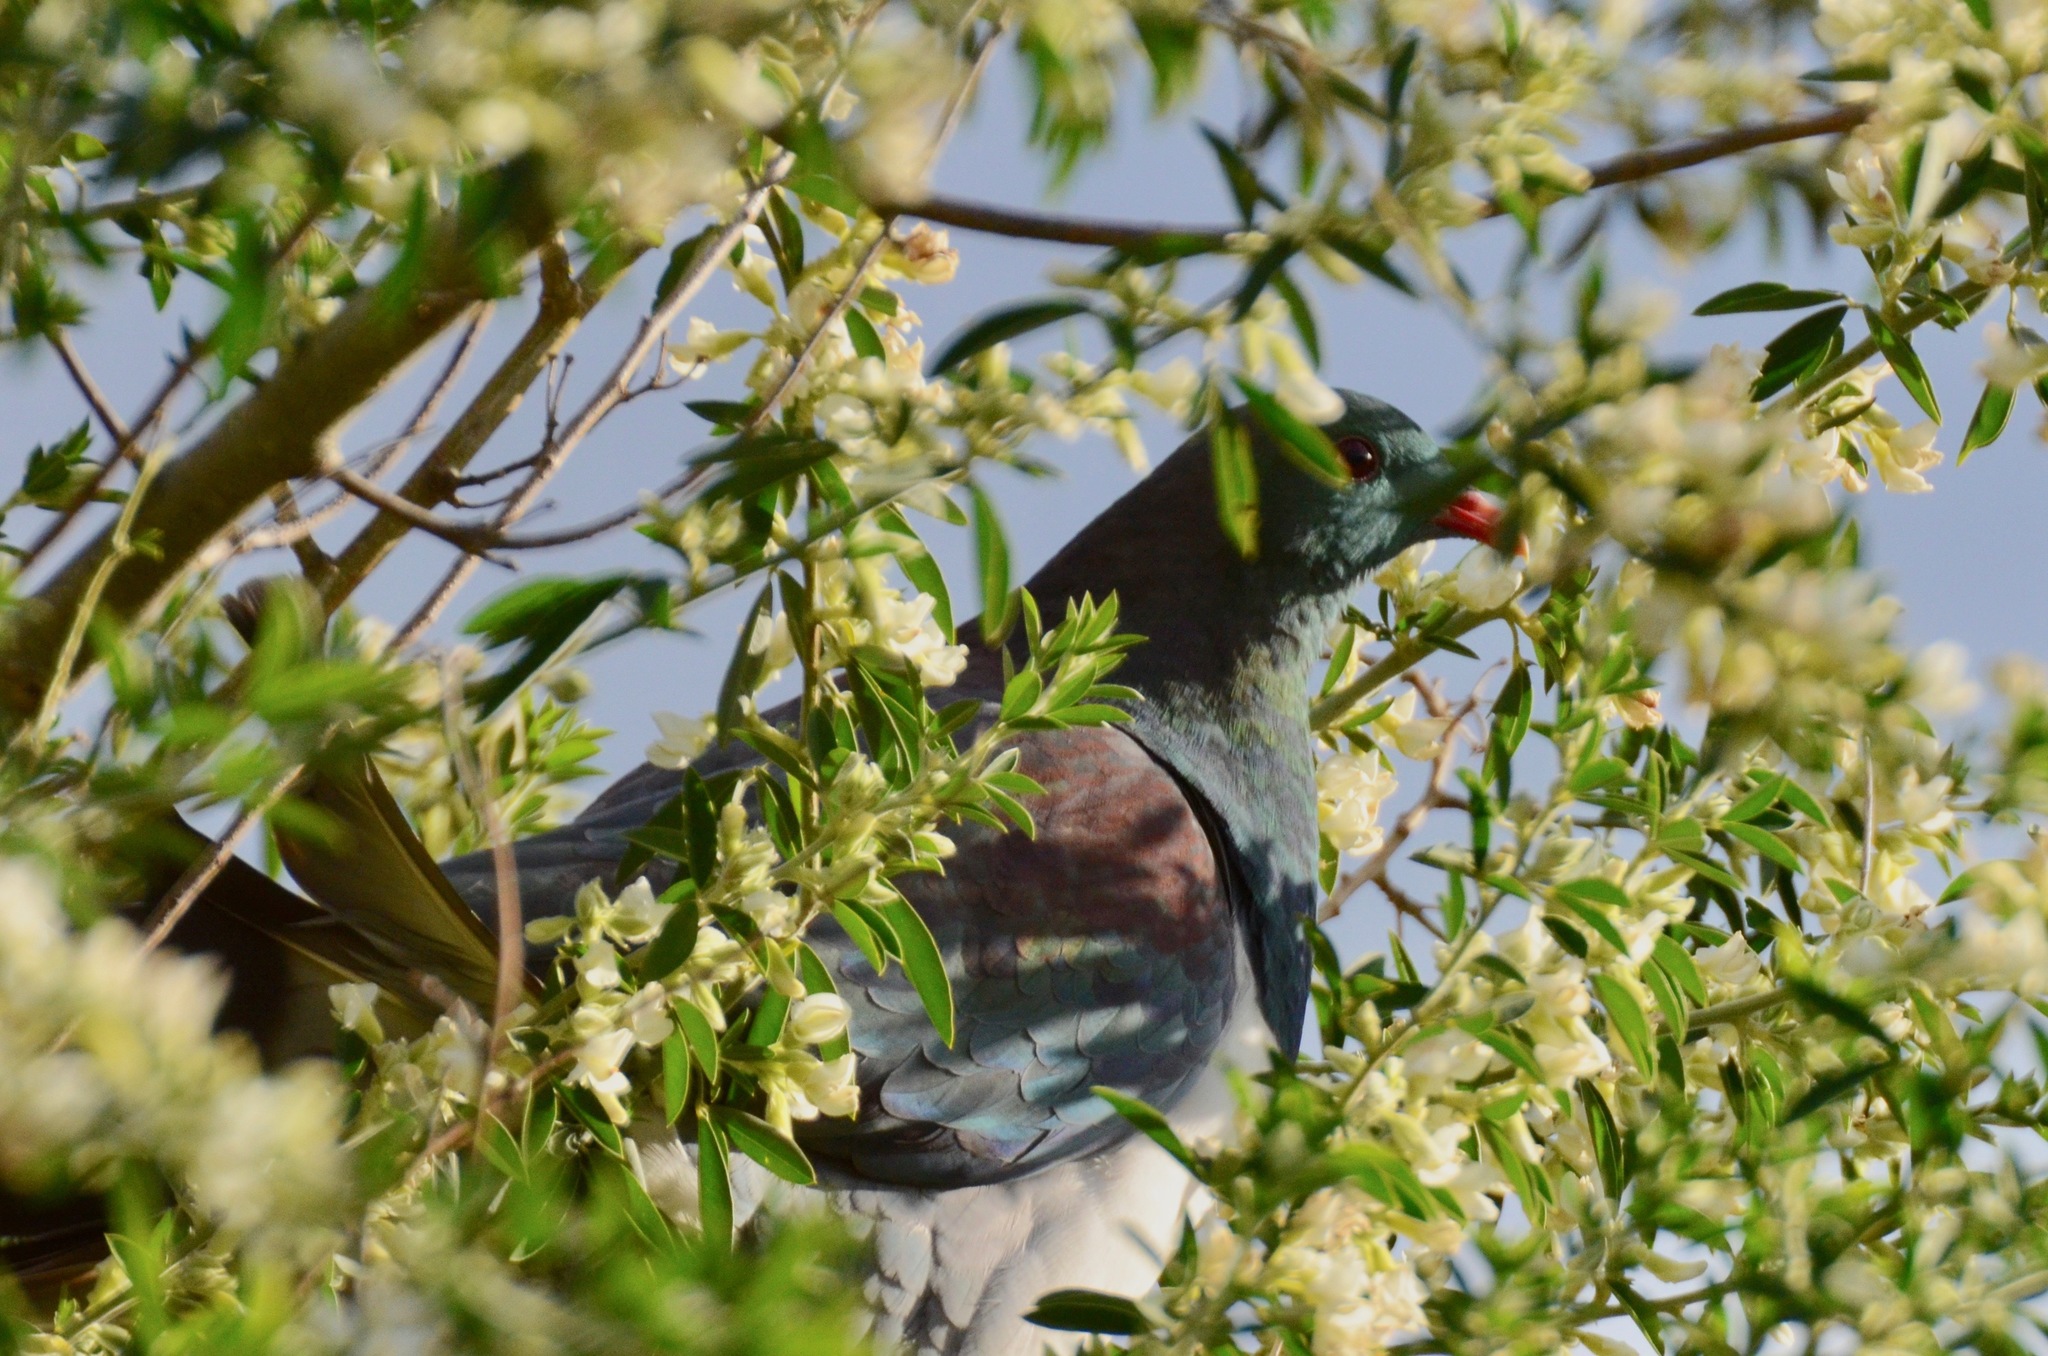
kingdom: Animalia
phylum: Chordata
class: Aves
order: Columbiformes
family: Columbidae
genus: Hemiphaga
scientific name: Hemiphaga novaeseelandiae
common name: New zealand pigeon
